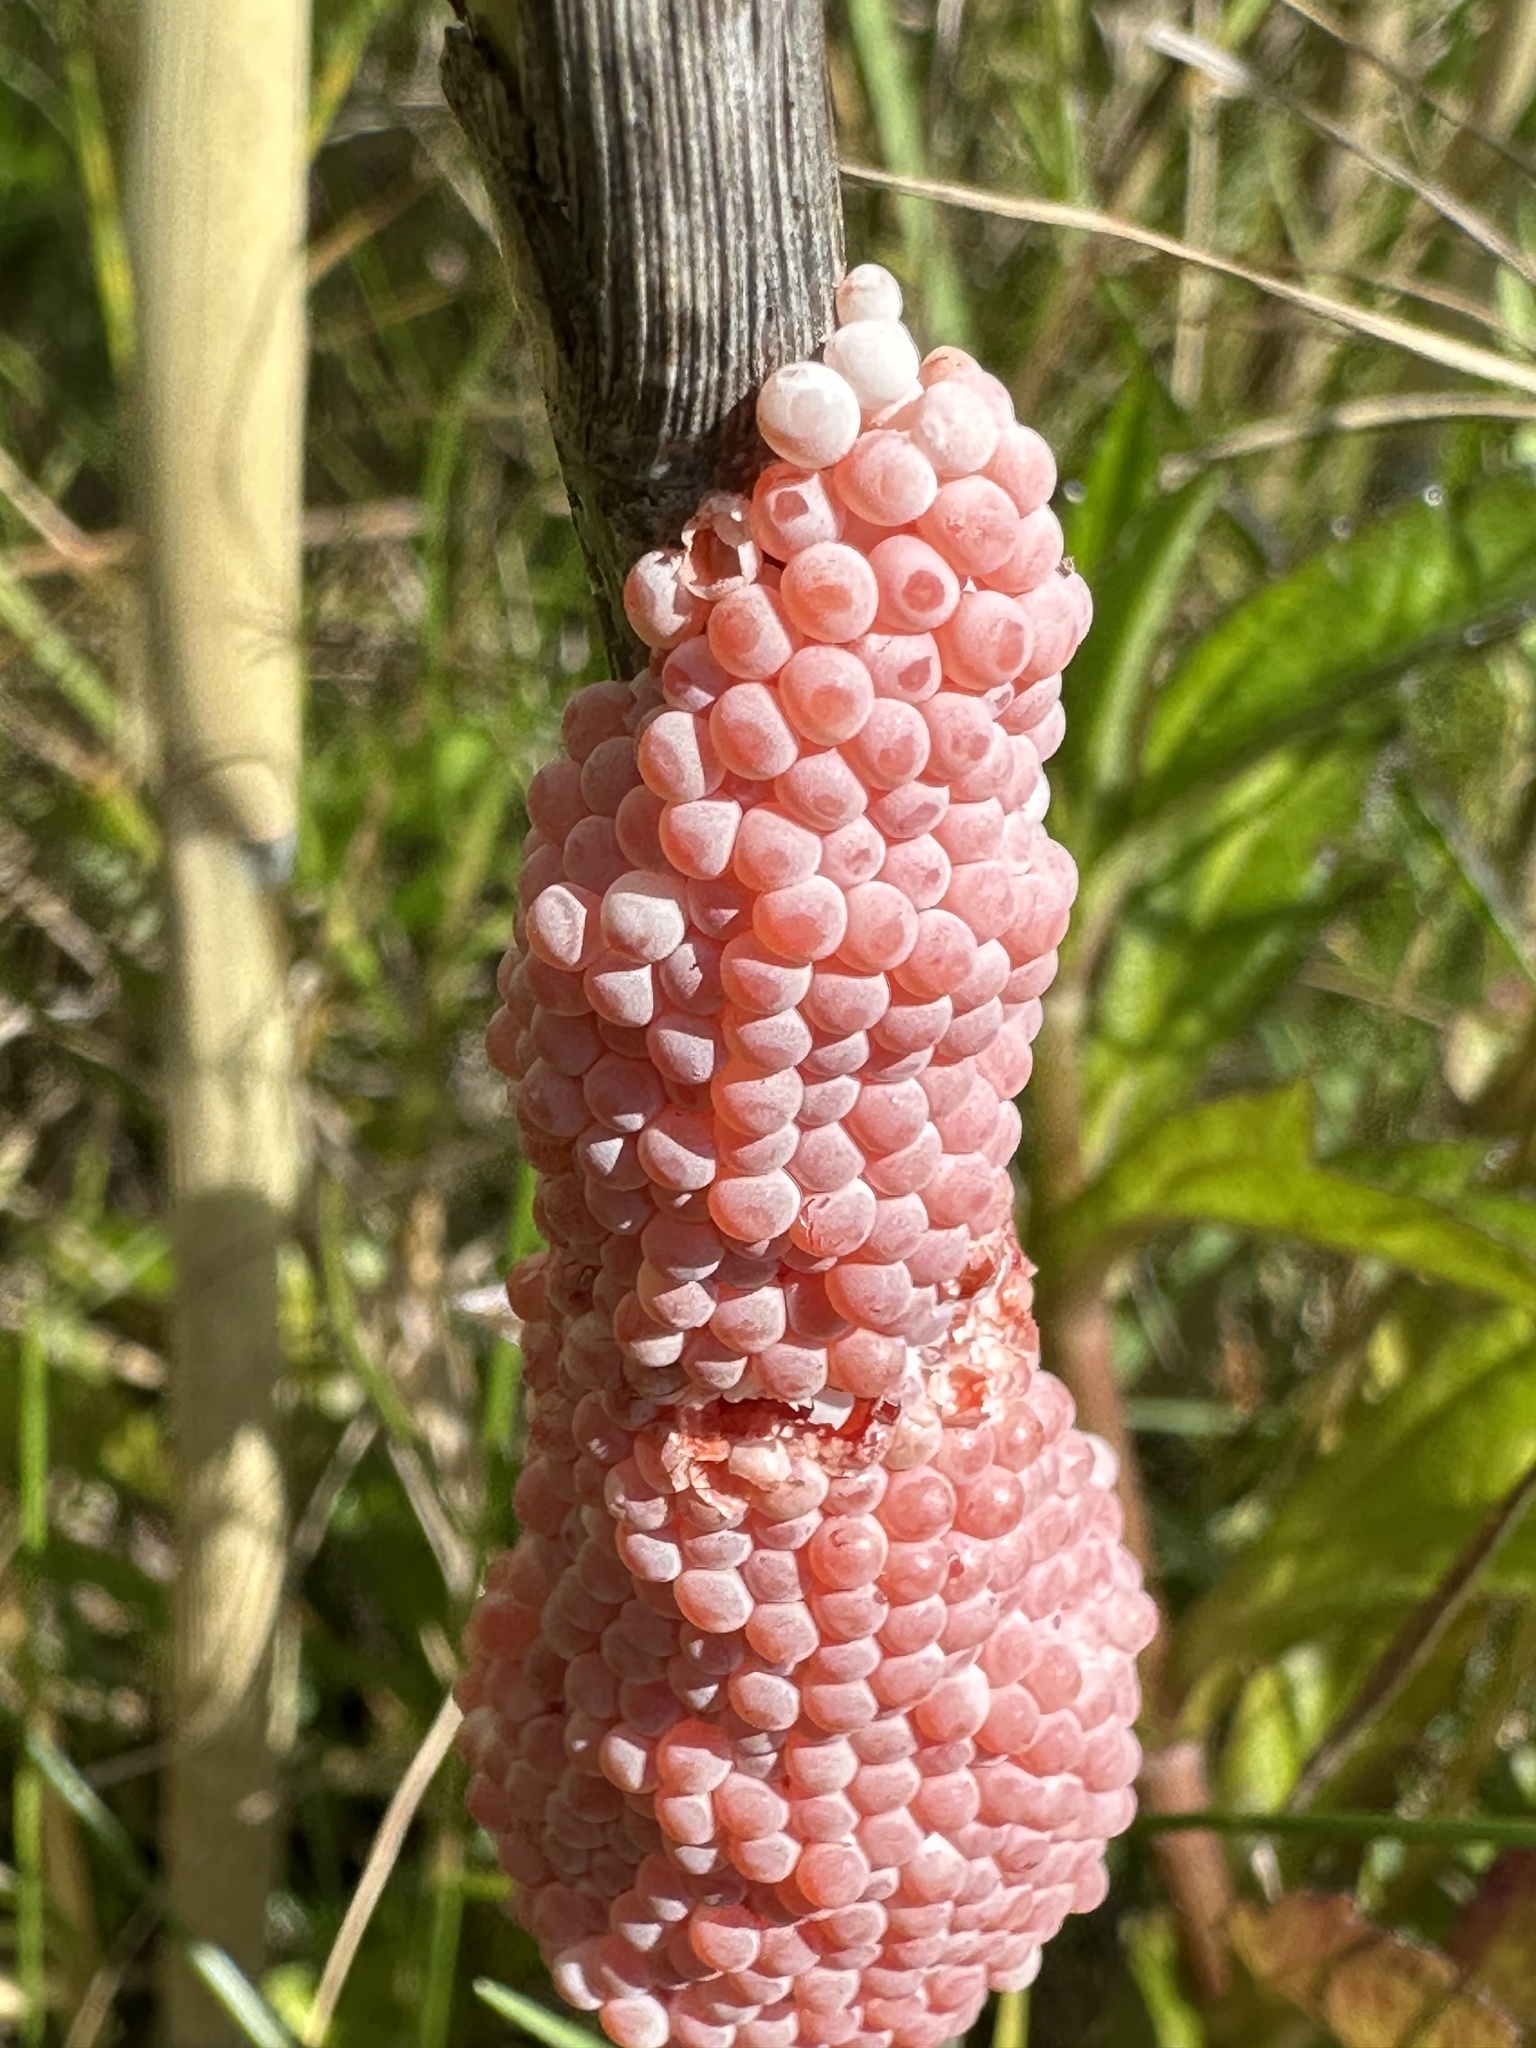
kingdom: Animalia
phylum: Mollusca
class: Gastropoda
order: Architaenioglossa
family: Ampullariidae
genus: Pomacea
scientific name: Pomacea maculata
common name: Giant applesnail
